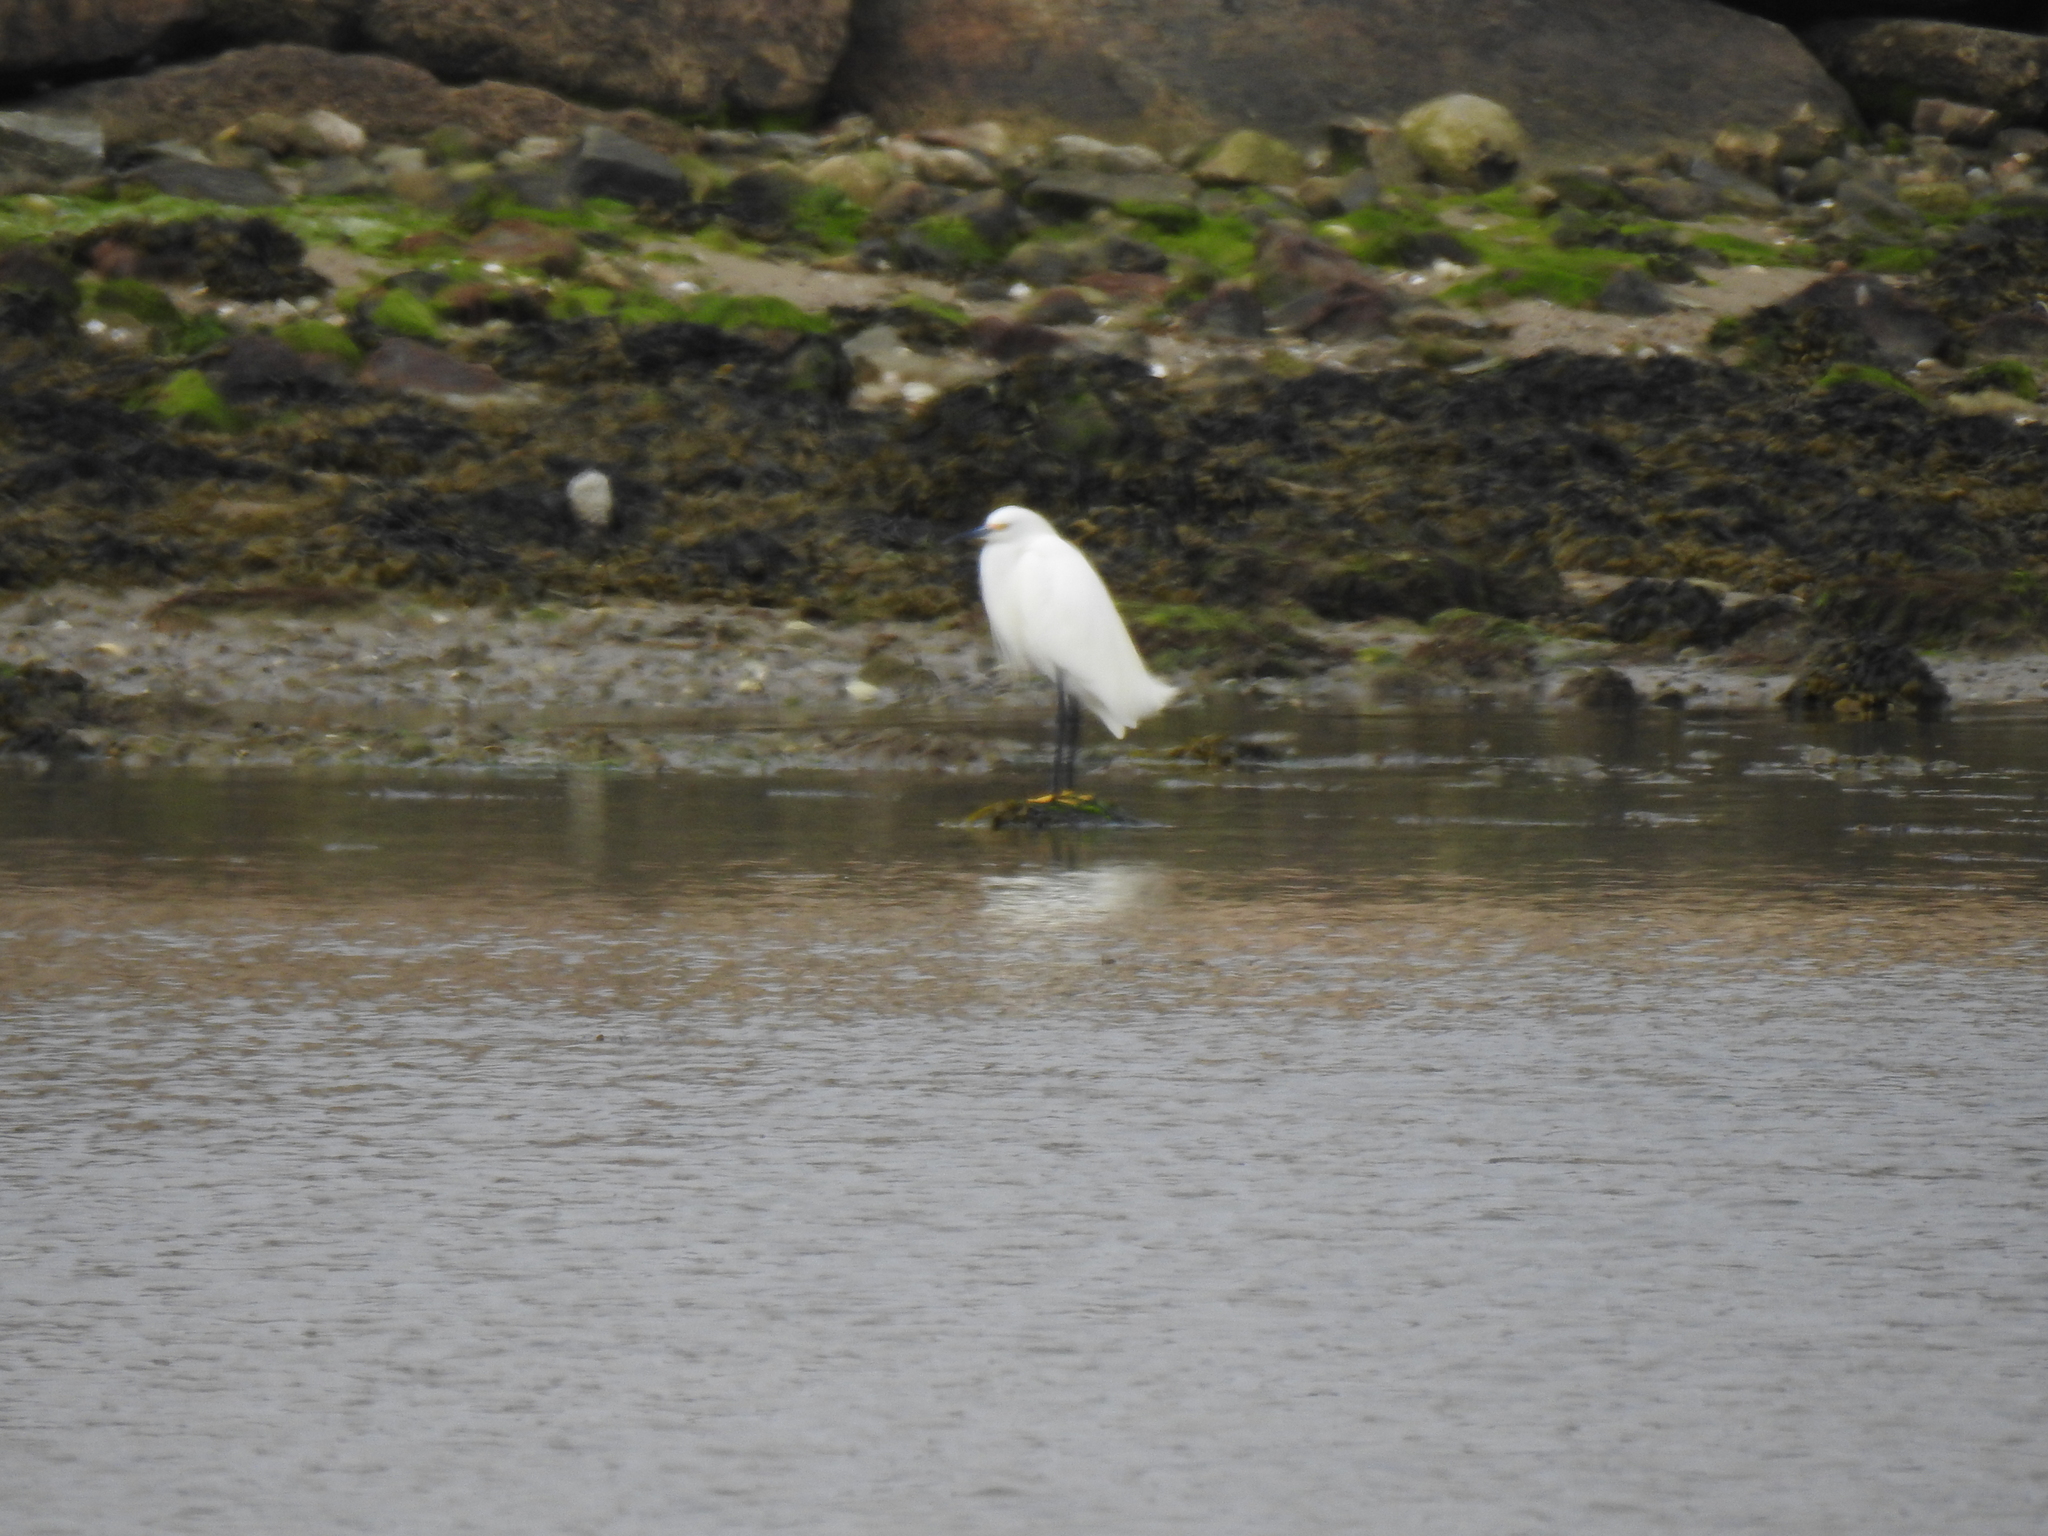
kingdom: Animalia
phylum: Chordata
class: Aves
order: Pelecaniformes
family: Ardeidae
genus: Egretta
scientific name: Egretta thula
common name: Snowy egret
